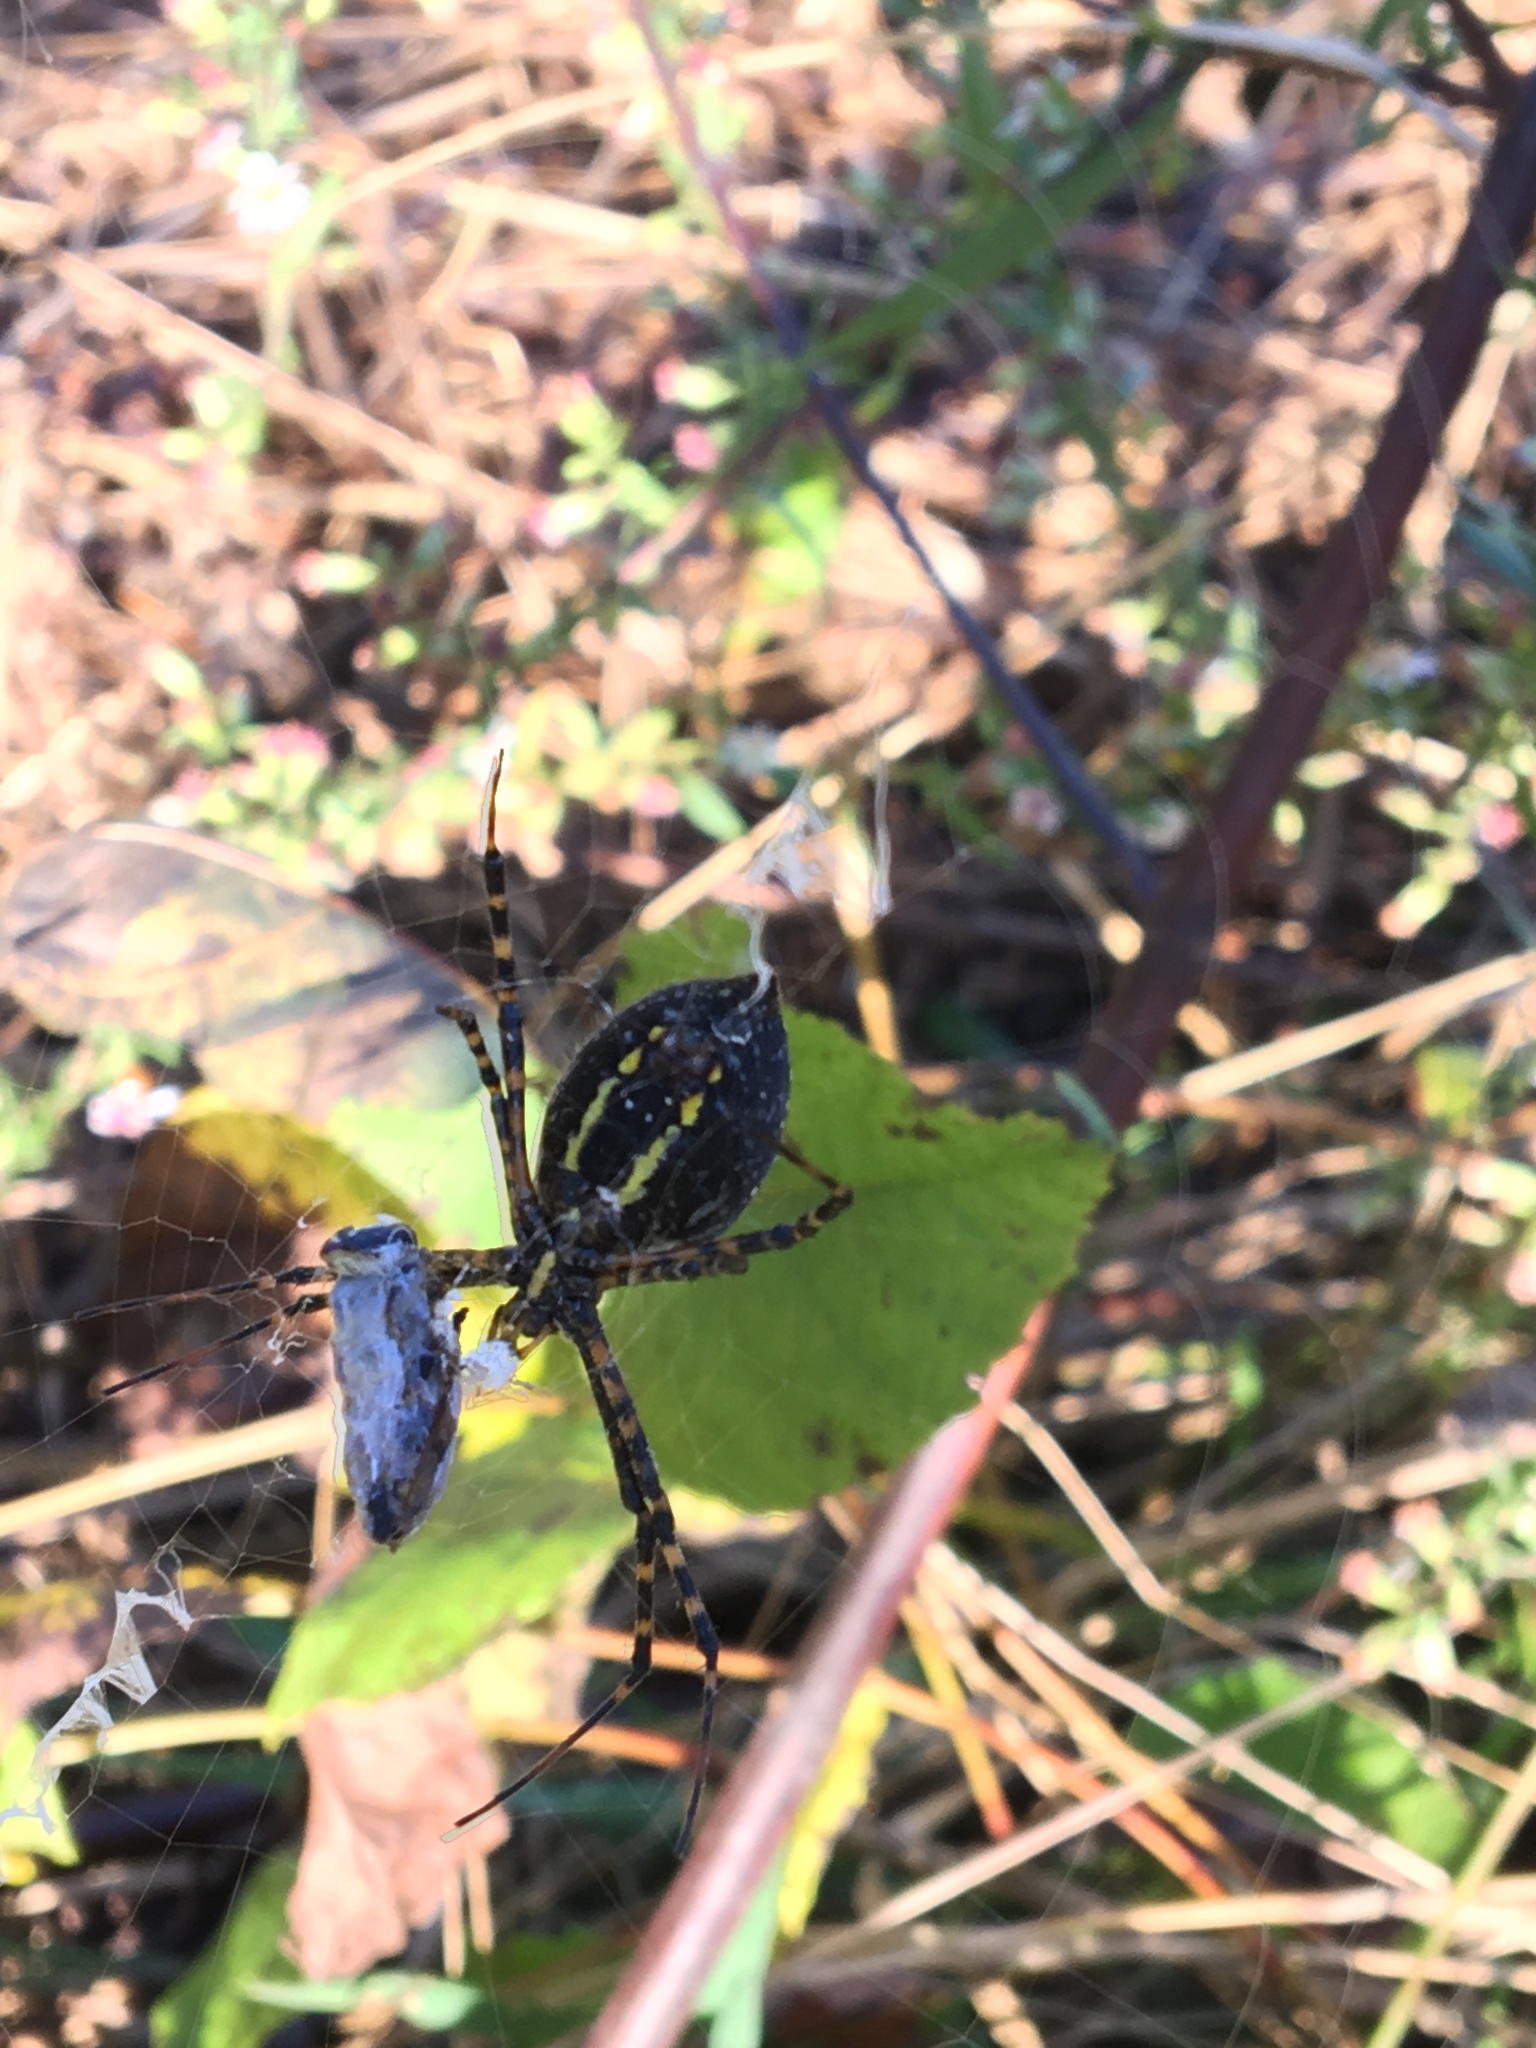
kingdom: Animalia
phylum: Arthropoda
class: Arachnida
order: Araneae
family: Araneidae
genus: Argiope
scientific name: Argiope trifasciata
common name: Banded garden spider
